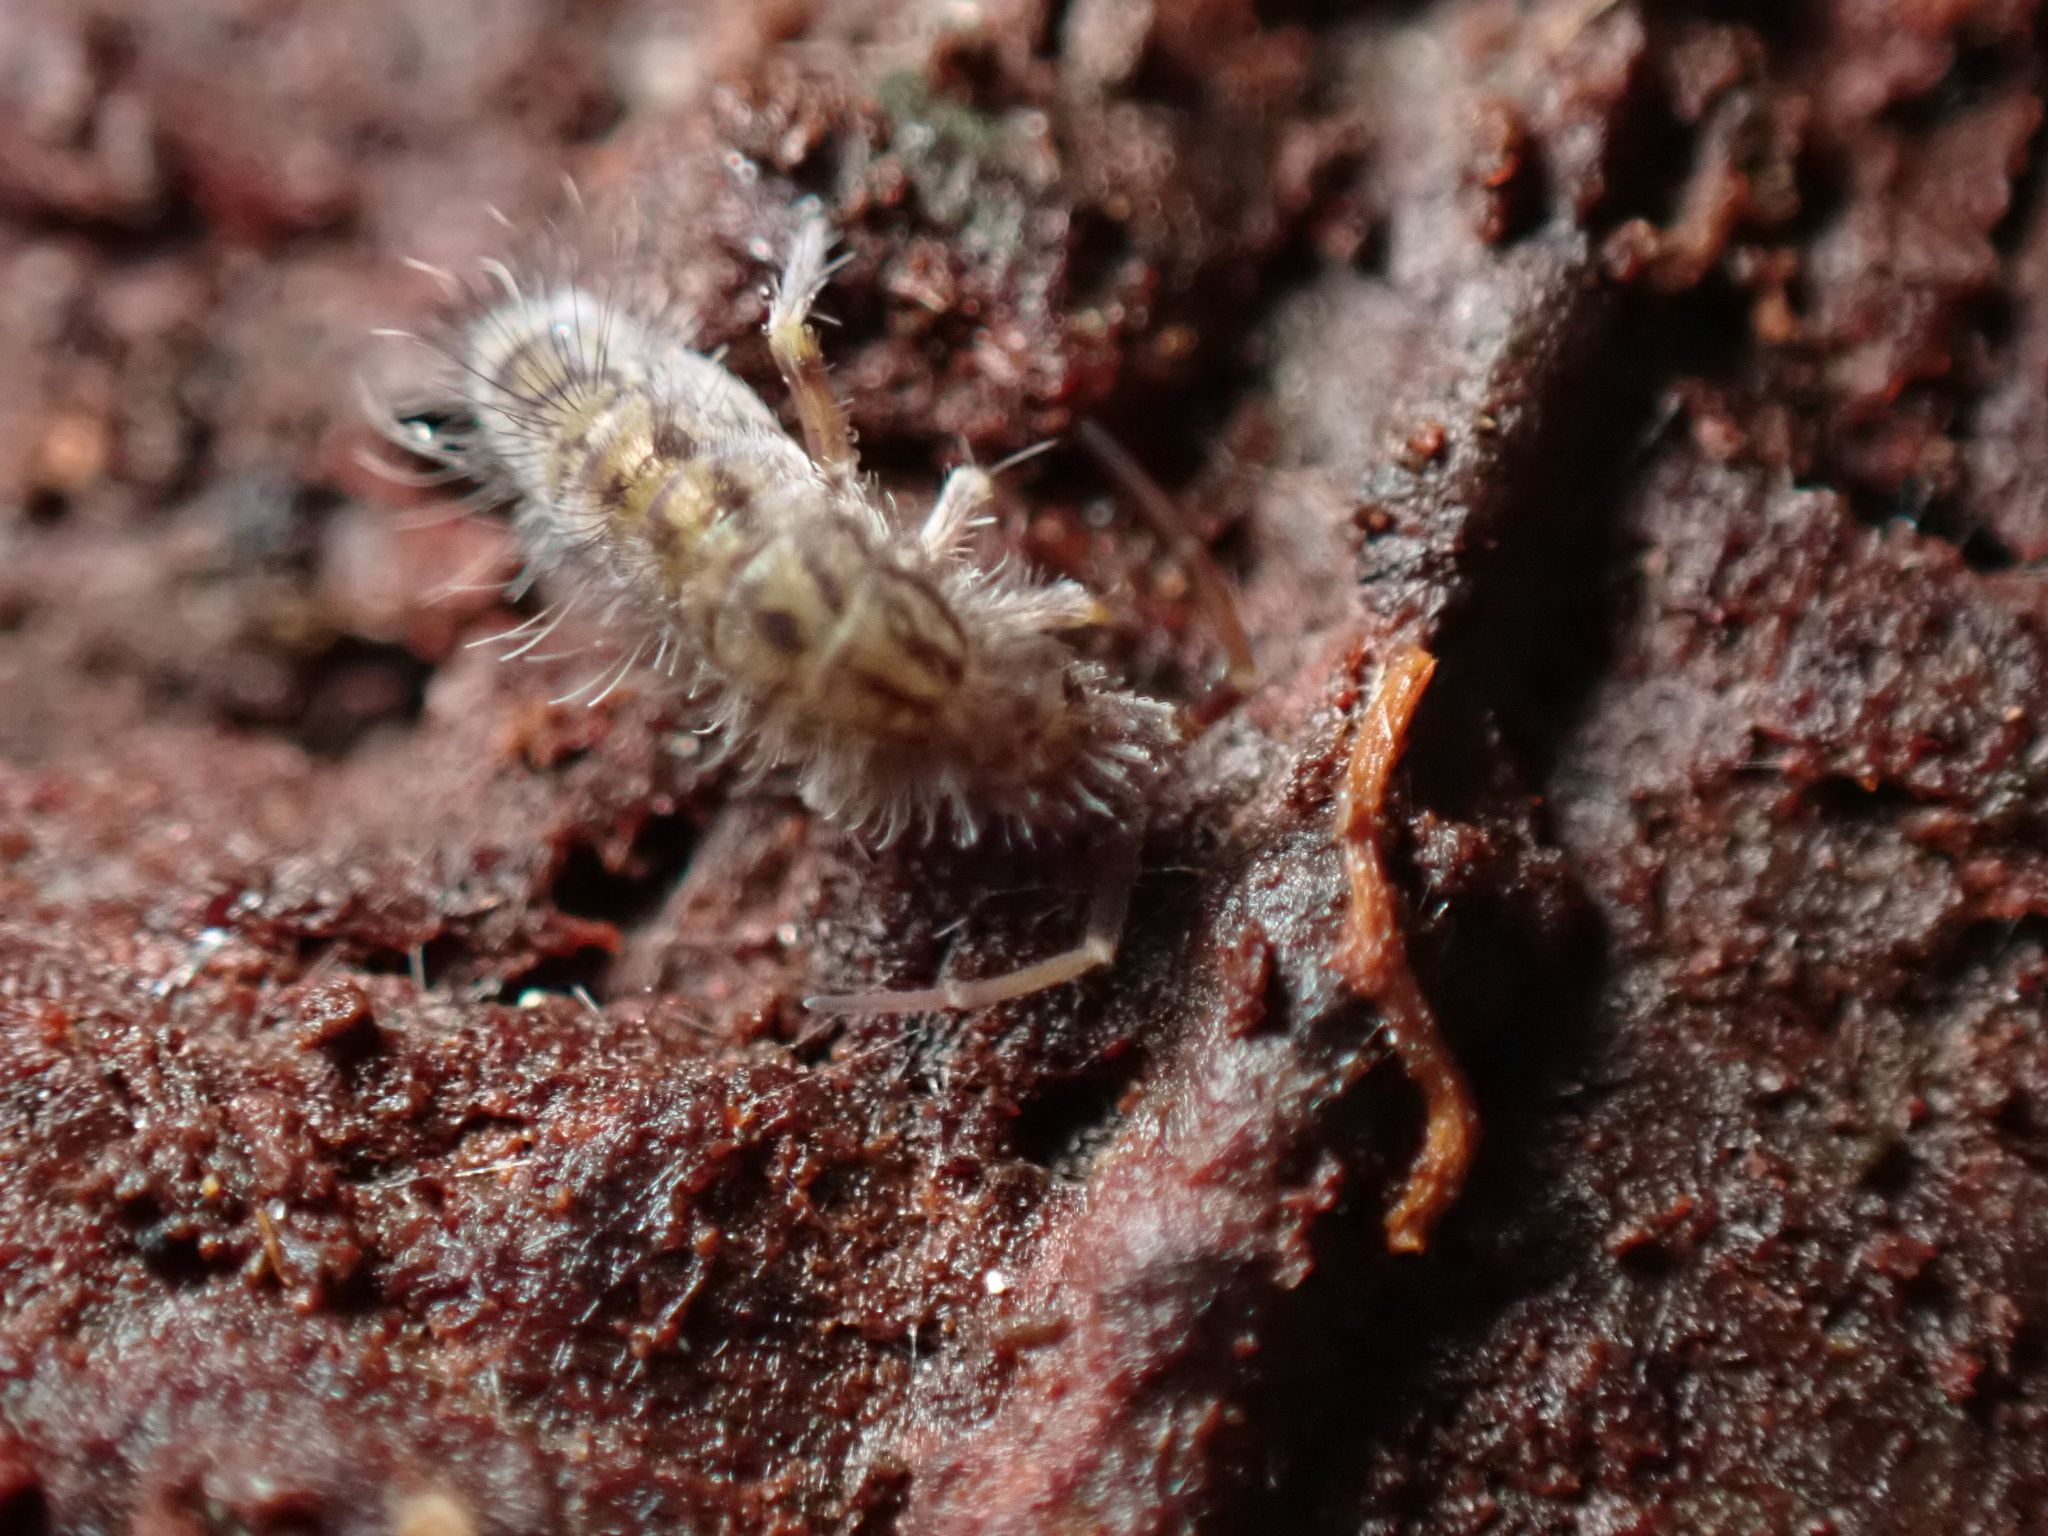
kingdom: Animalia
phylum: Arthropoda
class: Collembola
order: Entomobryomorpha
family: Orchesellidae
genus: Orchesella
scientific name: Orchesella villosa
